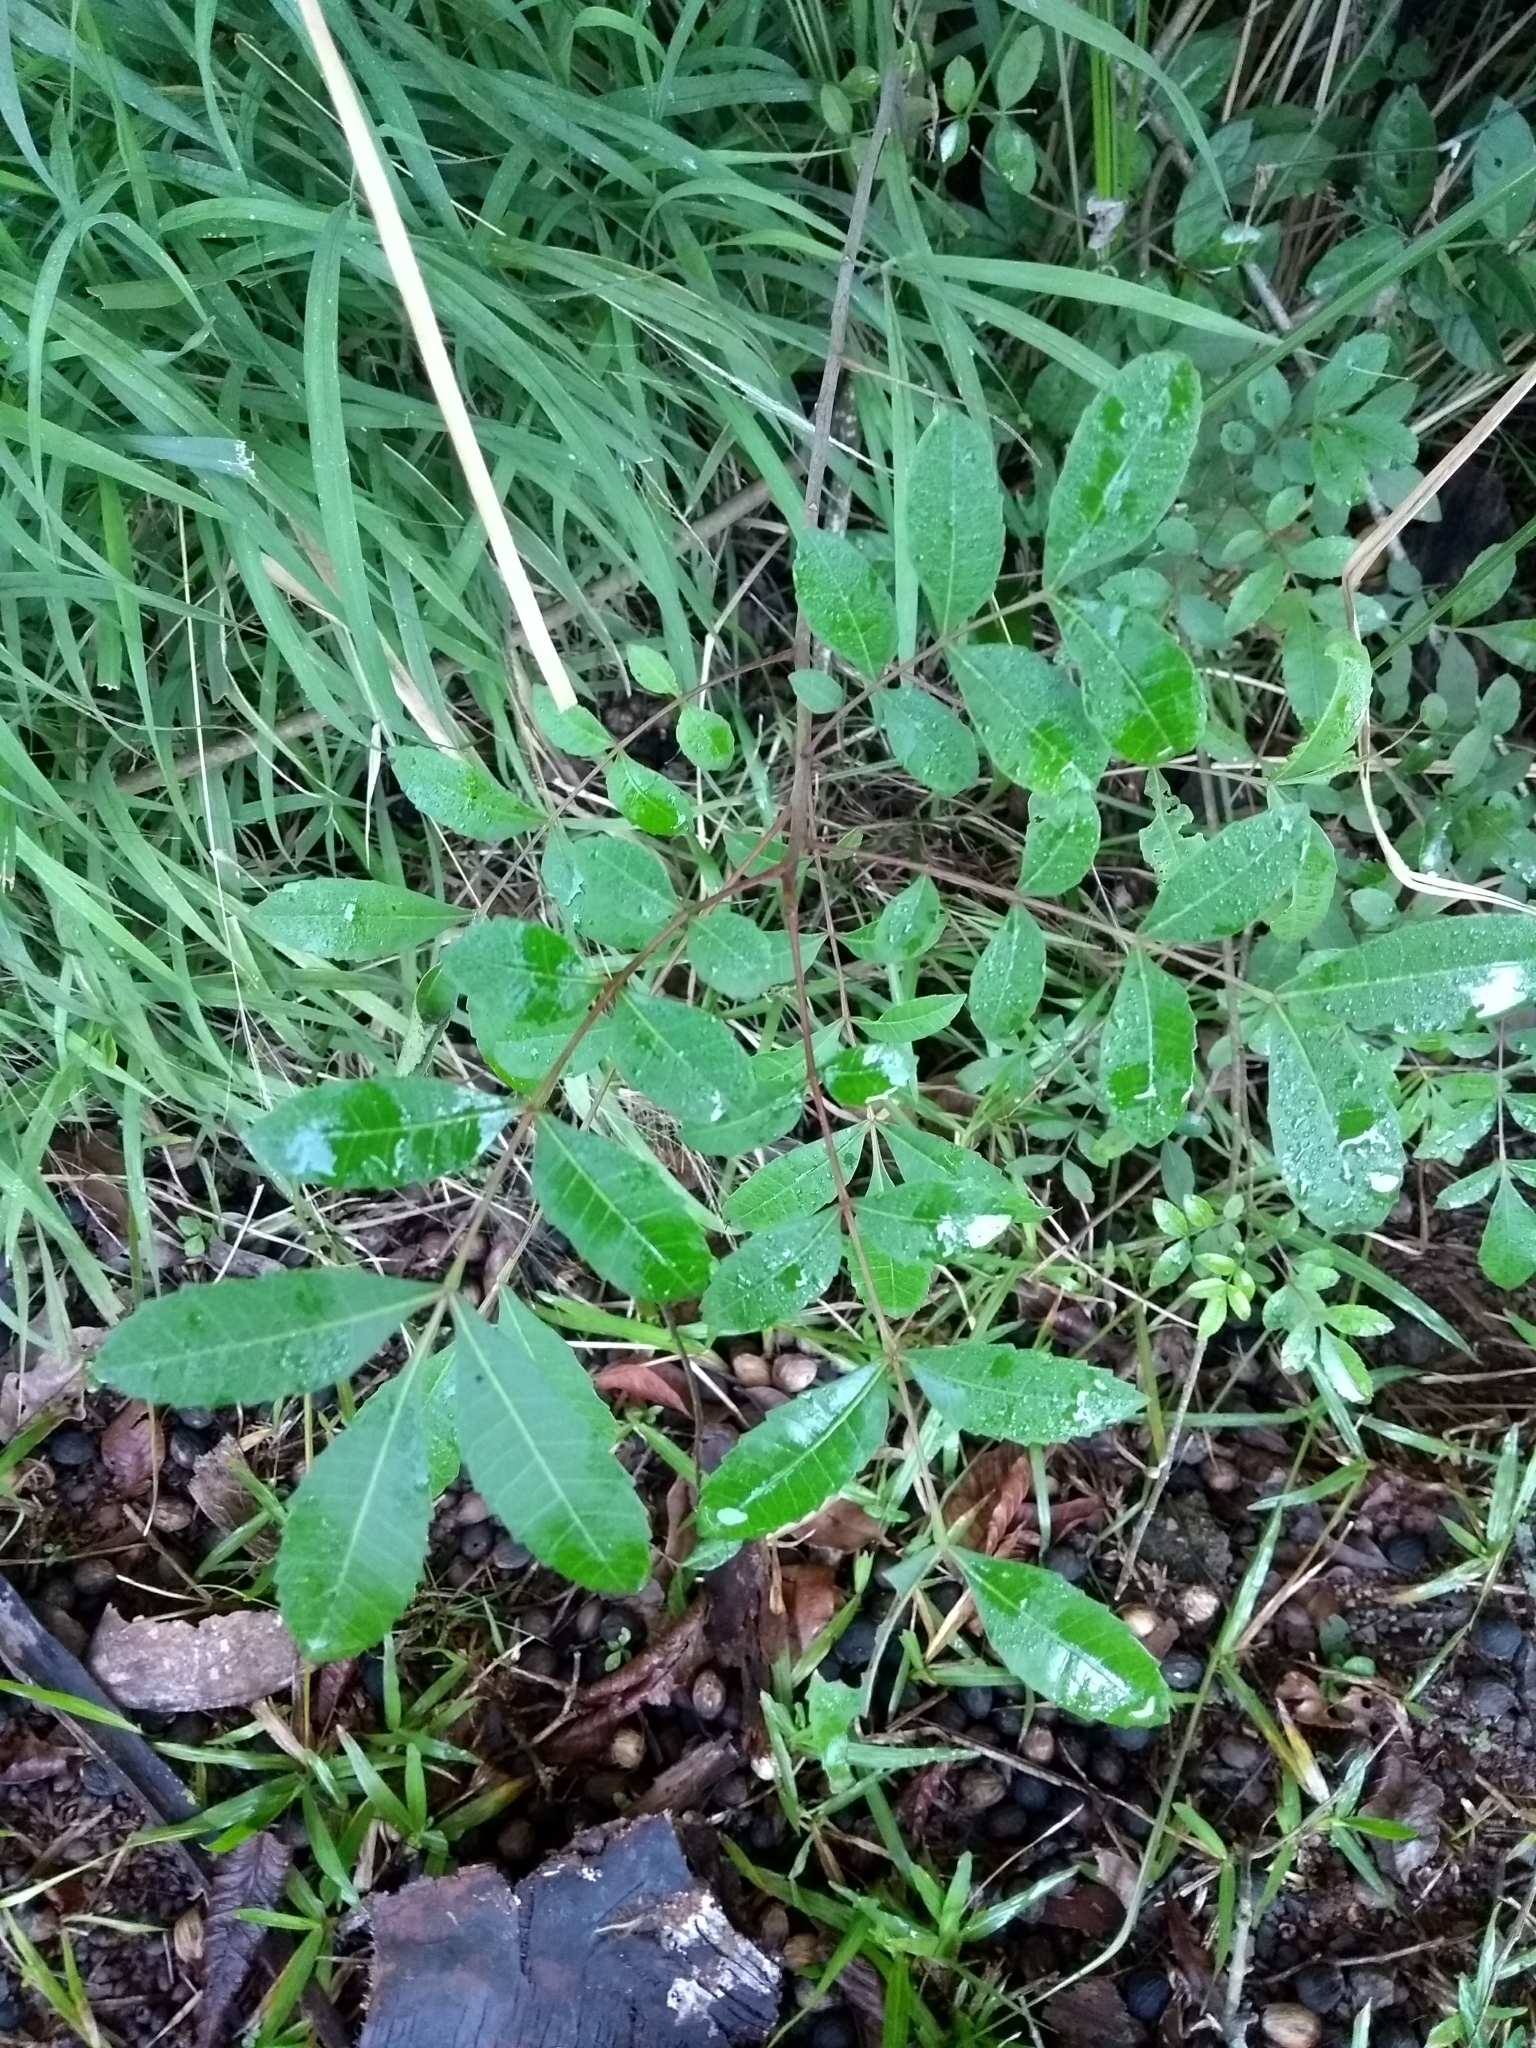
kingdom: Plantae
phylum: Tracheophyta
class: Magnoliopsida
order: Sapindales
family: Anacardiaceae
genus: Schinus
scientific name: Schinus terebinthifolia
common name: Brazilian peppertree
